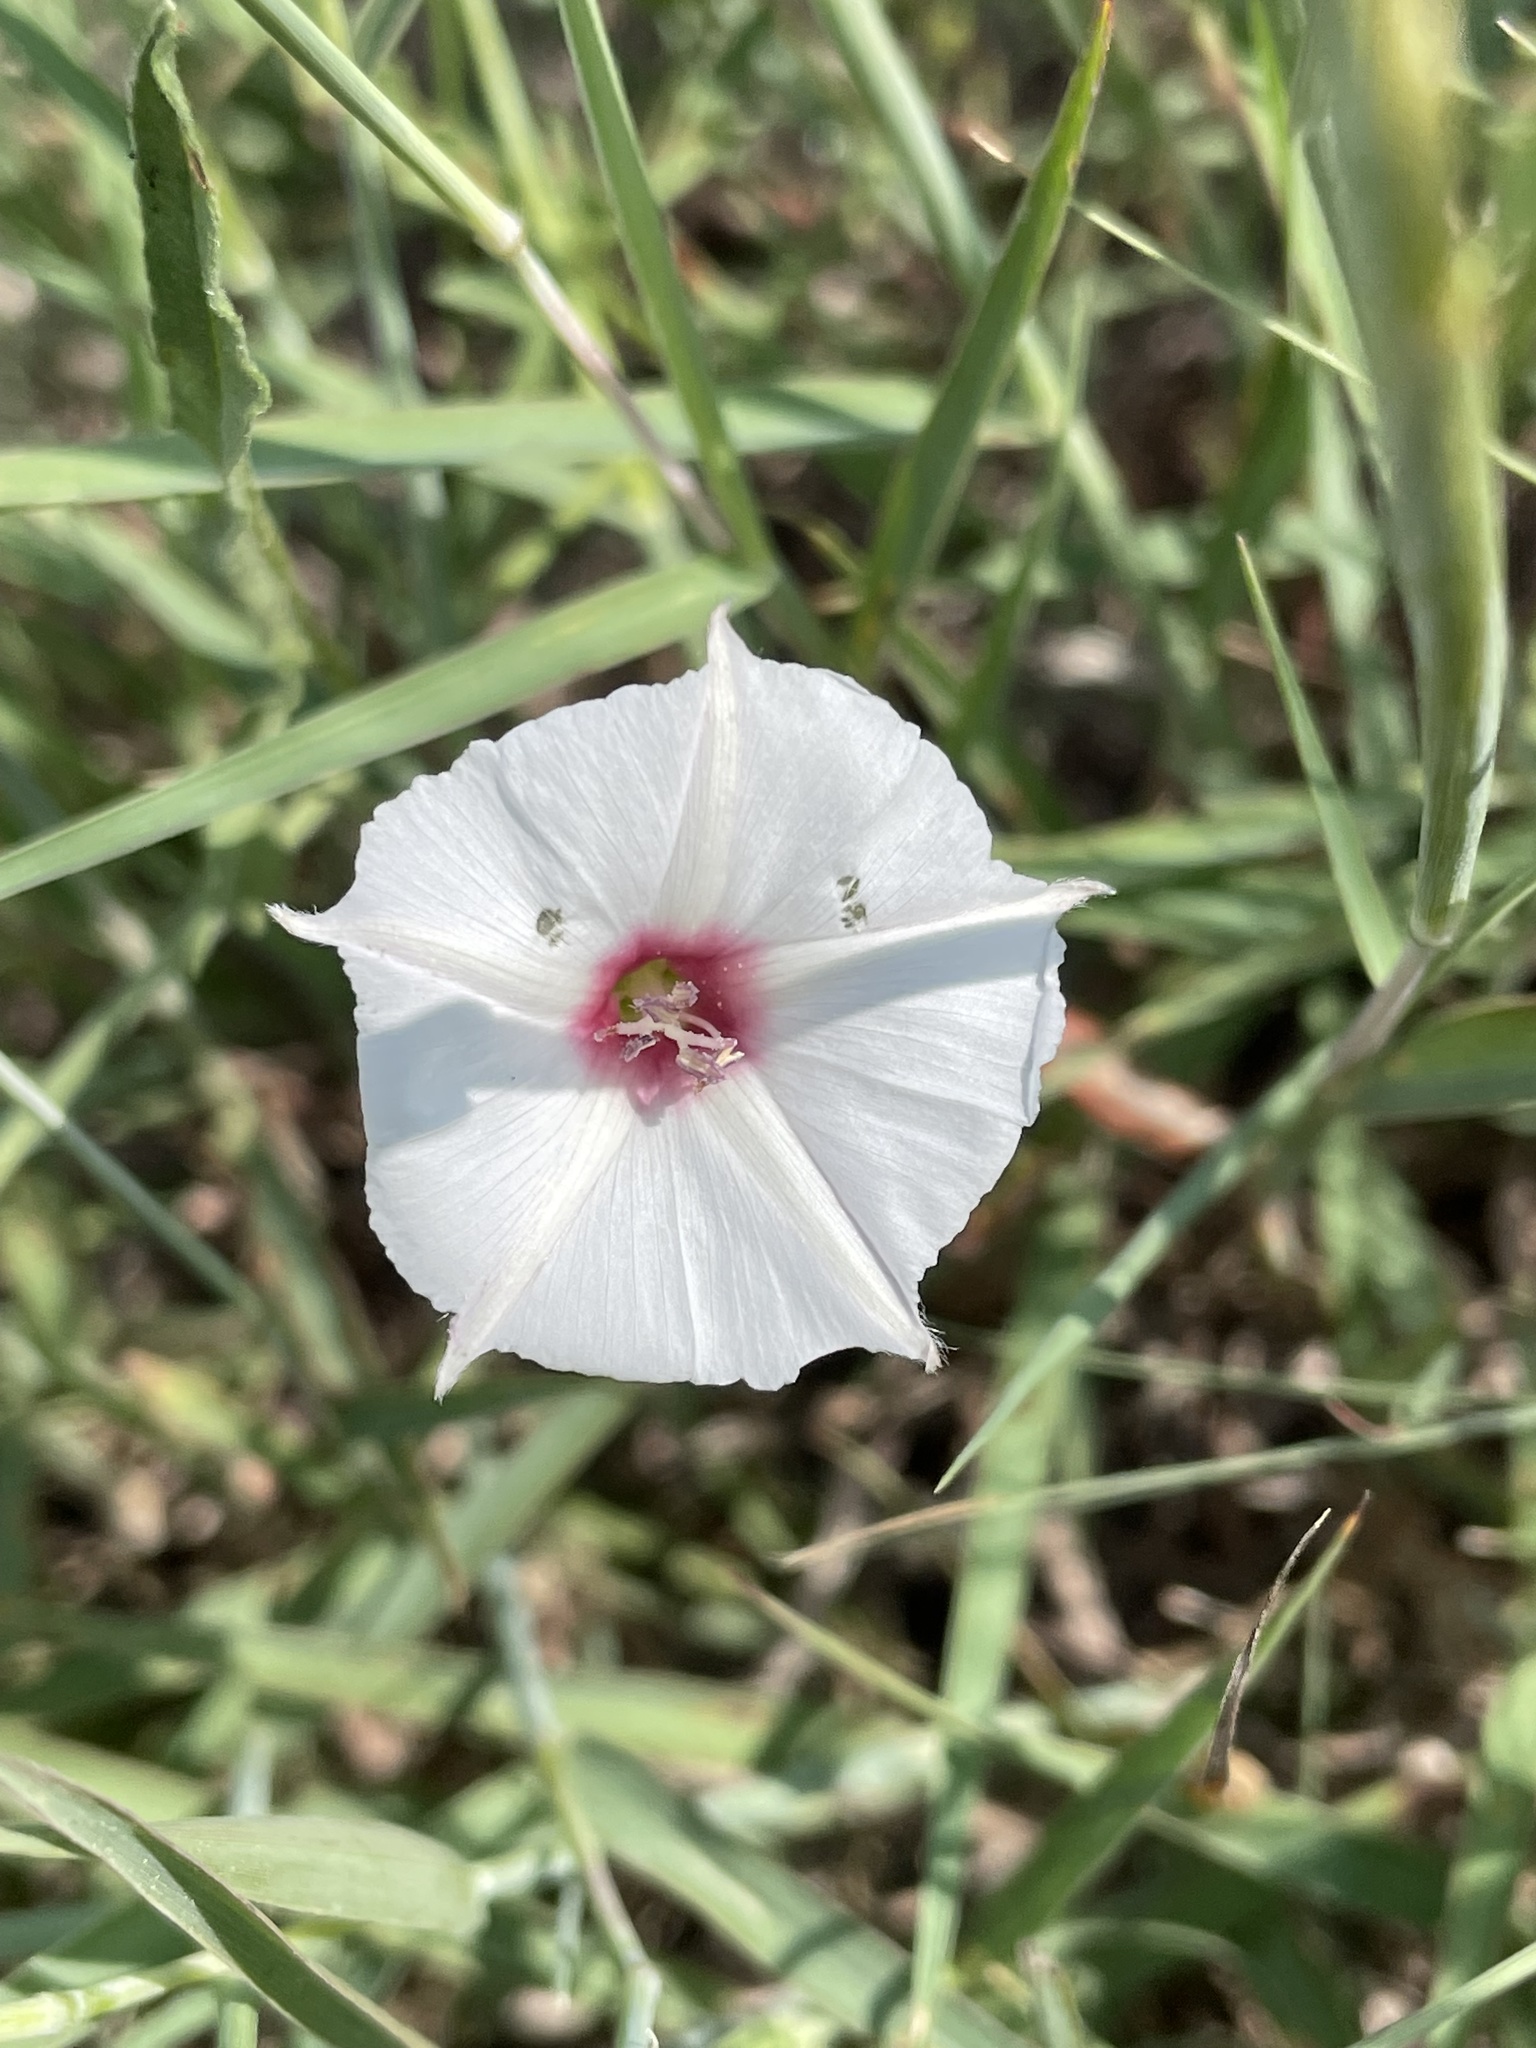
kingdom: Plantae
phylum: Tracheophyta
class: Magnoliopsida
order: Solanales
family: Convolvulaceae
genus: Convolvulus
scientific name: Convolvulus equitans
